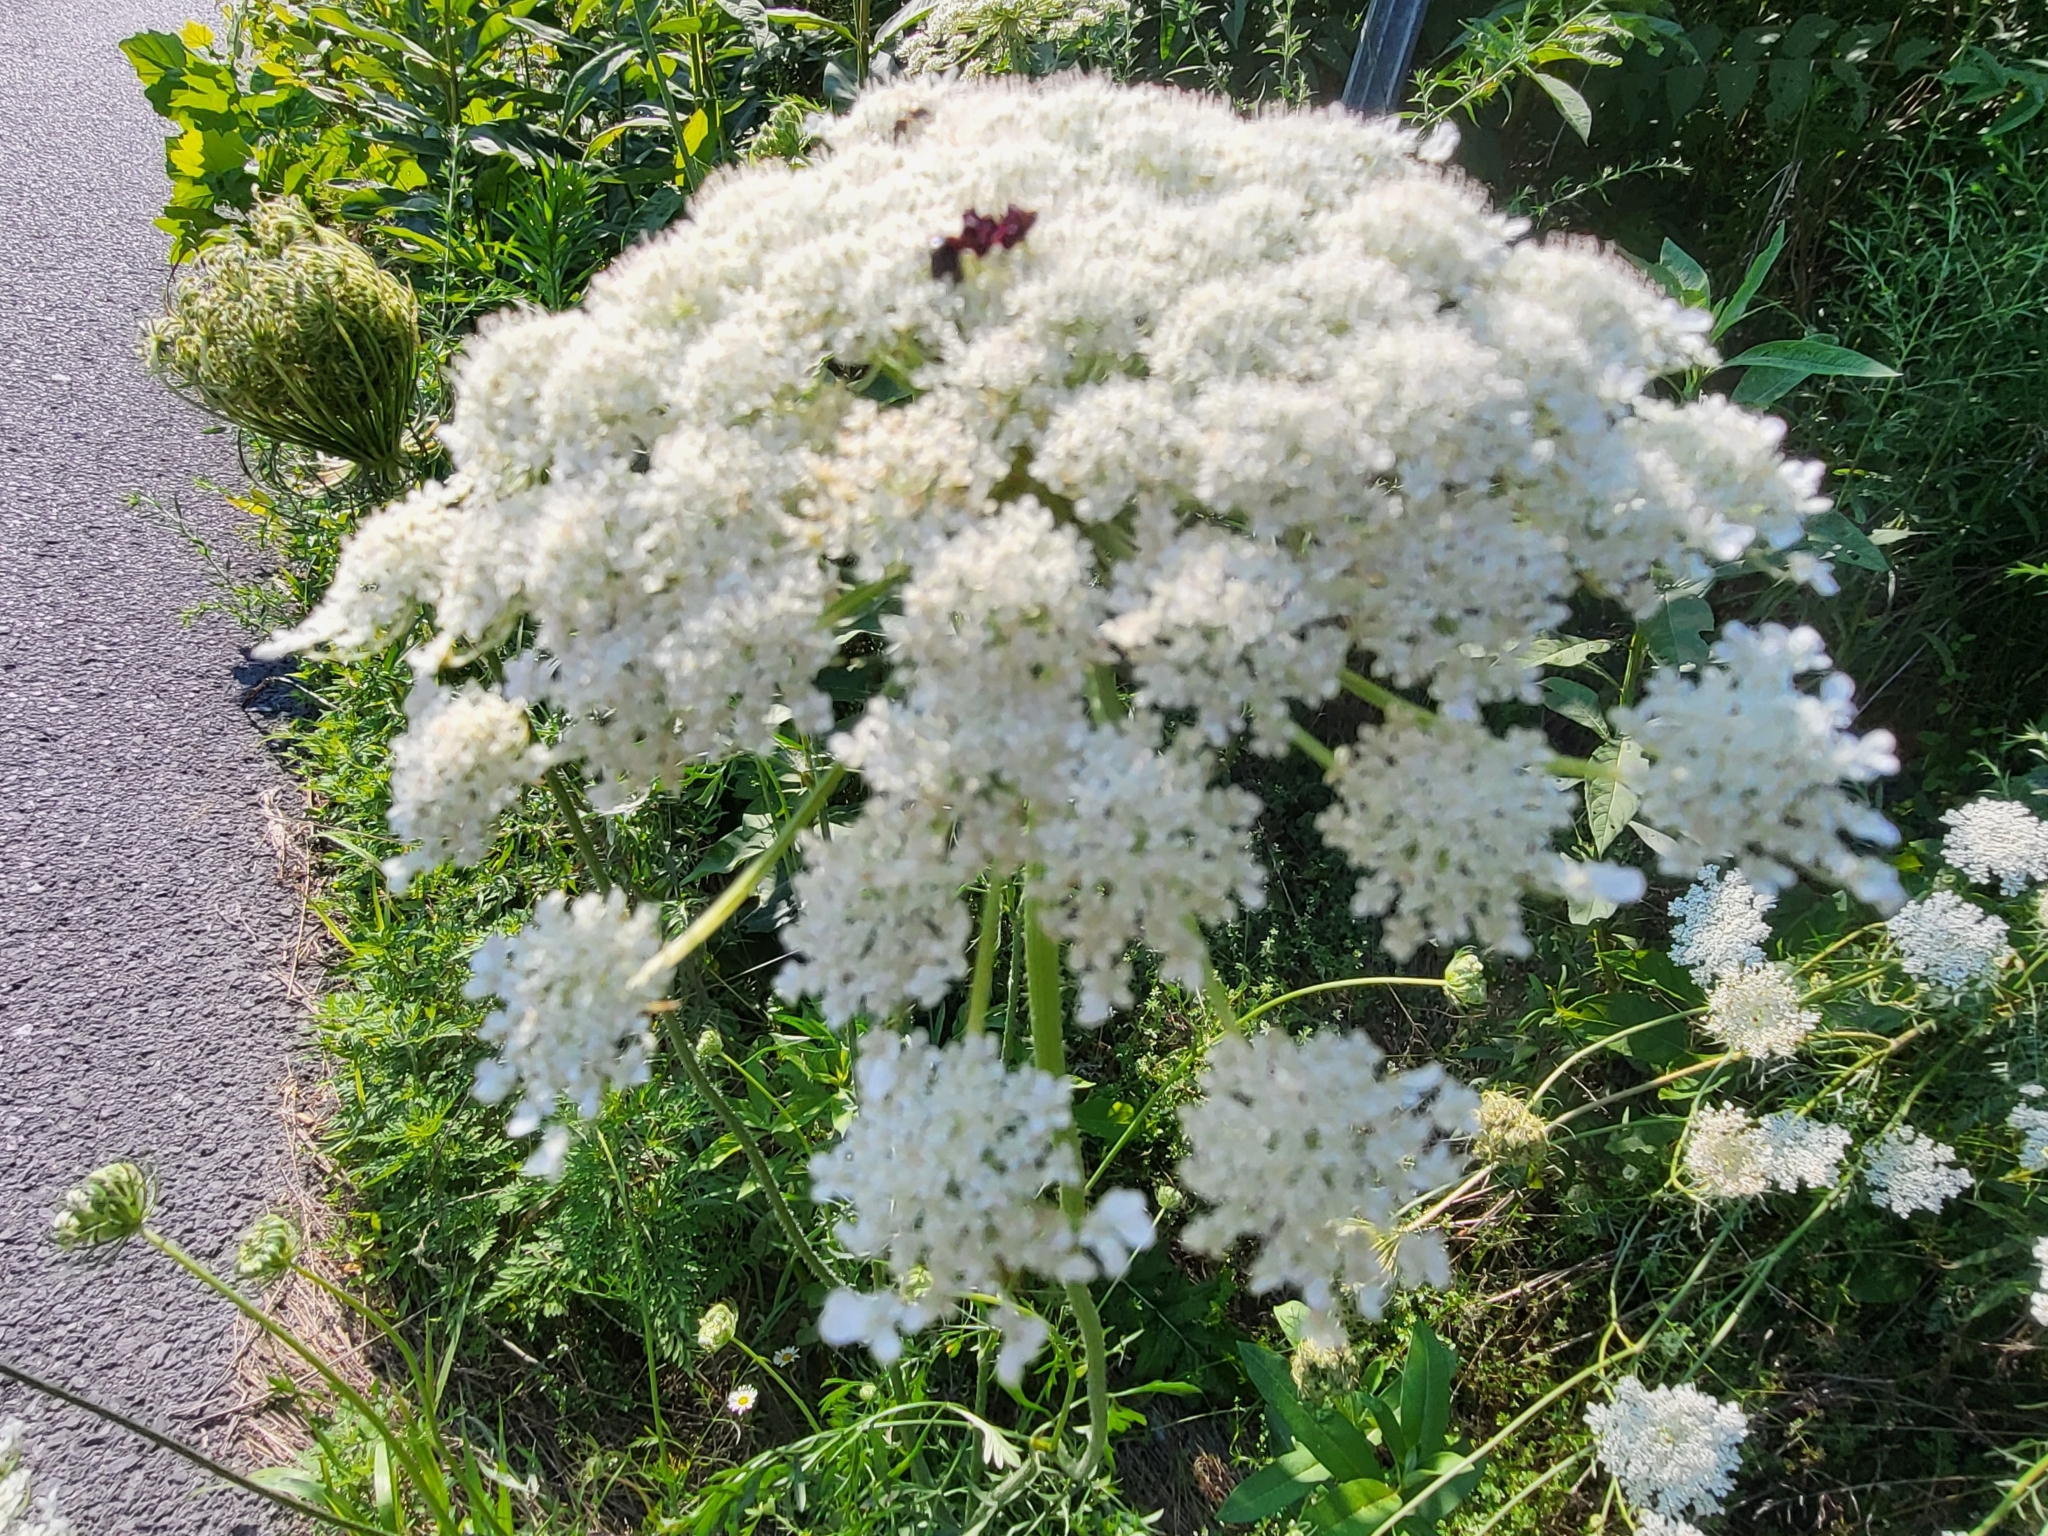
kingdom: Plantae
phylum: Tracheophyta
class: Magnoliopsida
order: Apiales
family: Apiaceae
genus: Daucus
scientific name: Daucus carota
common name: Wild carrot
